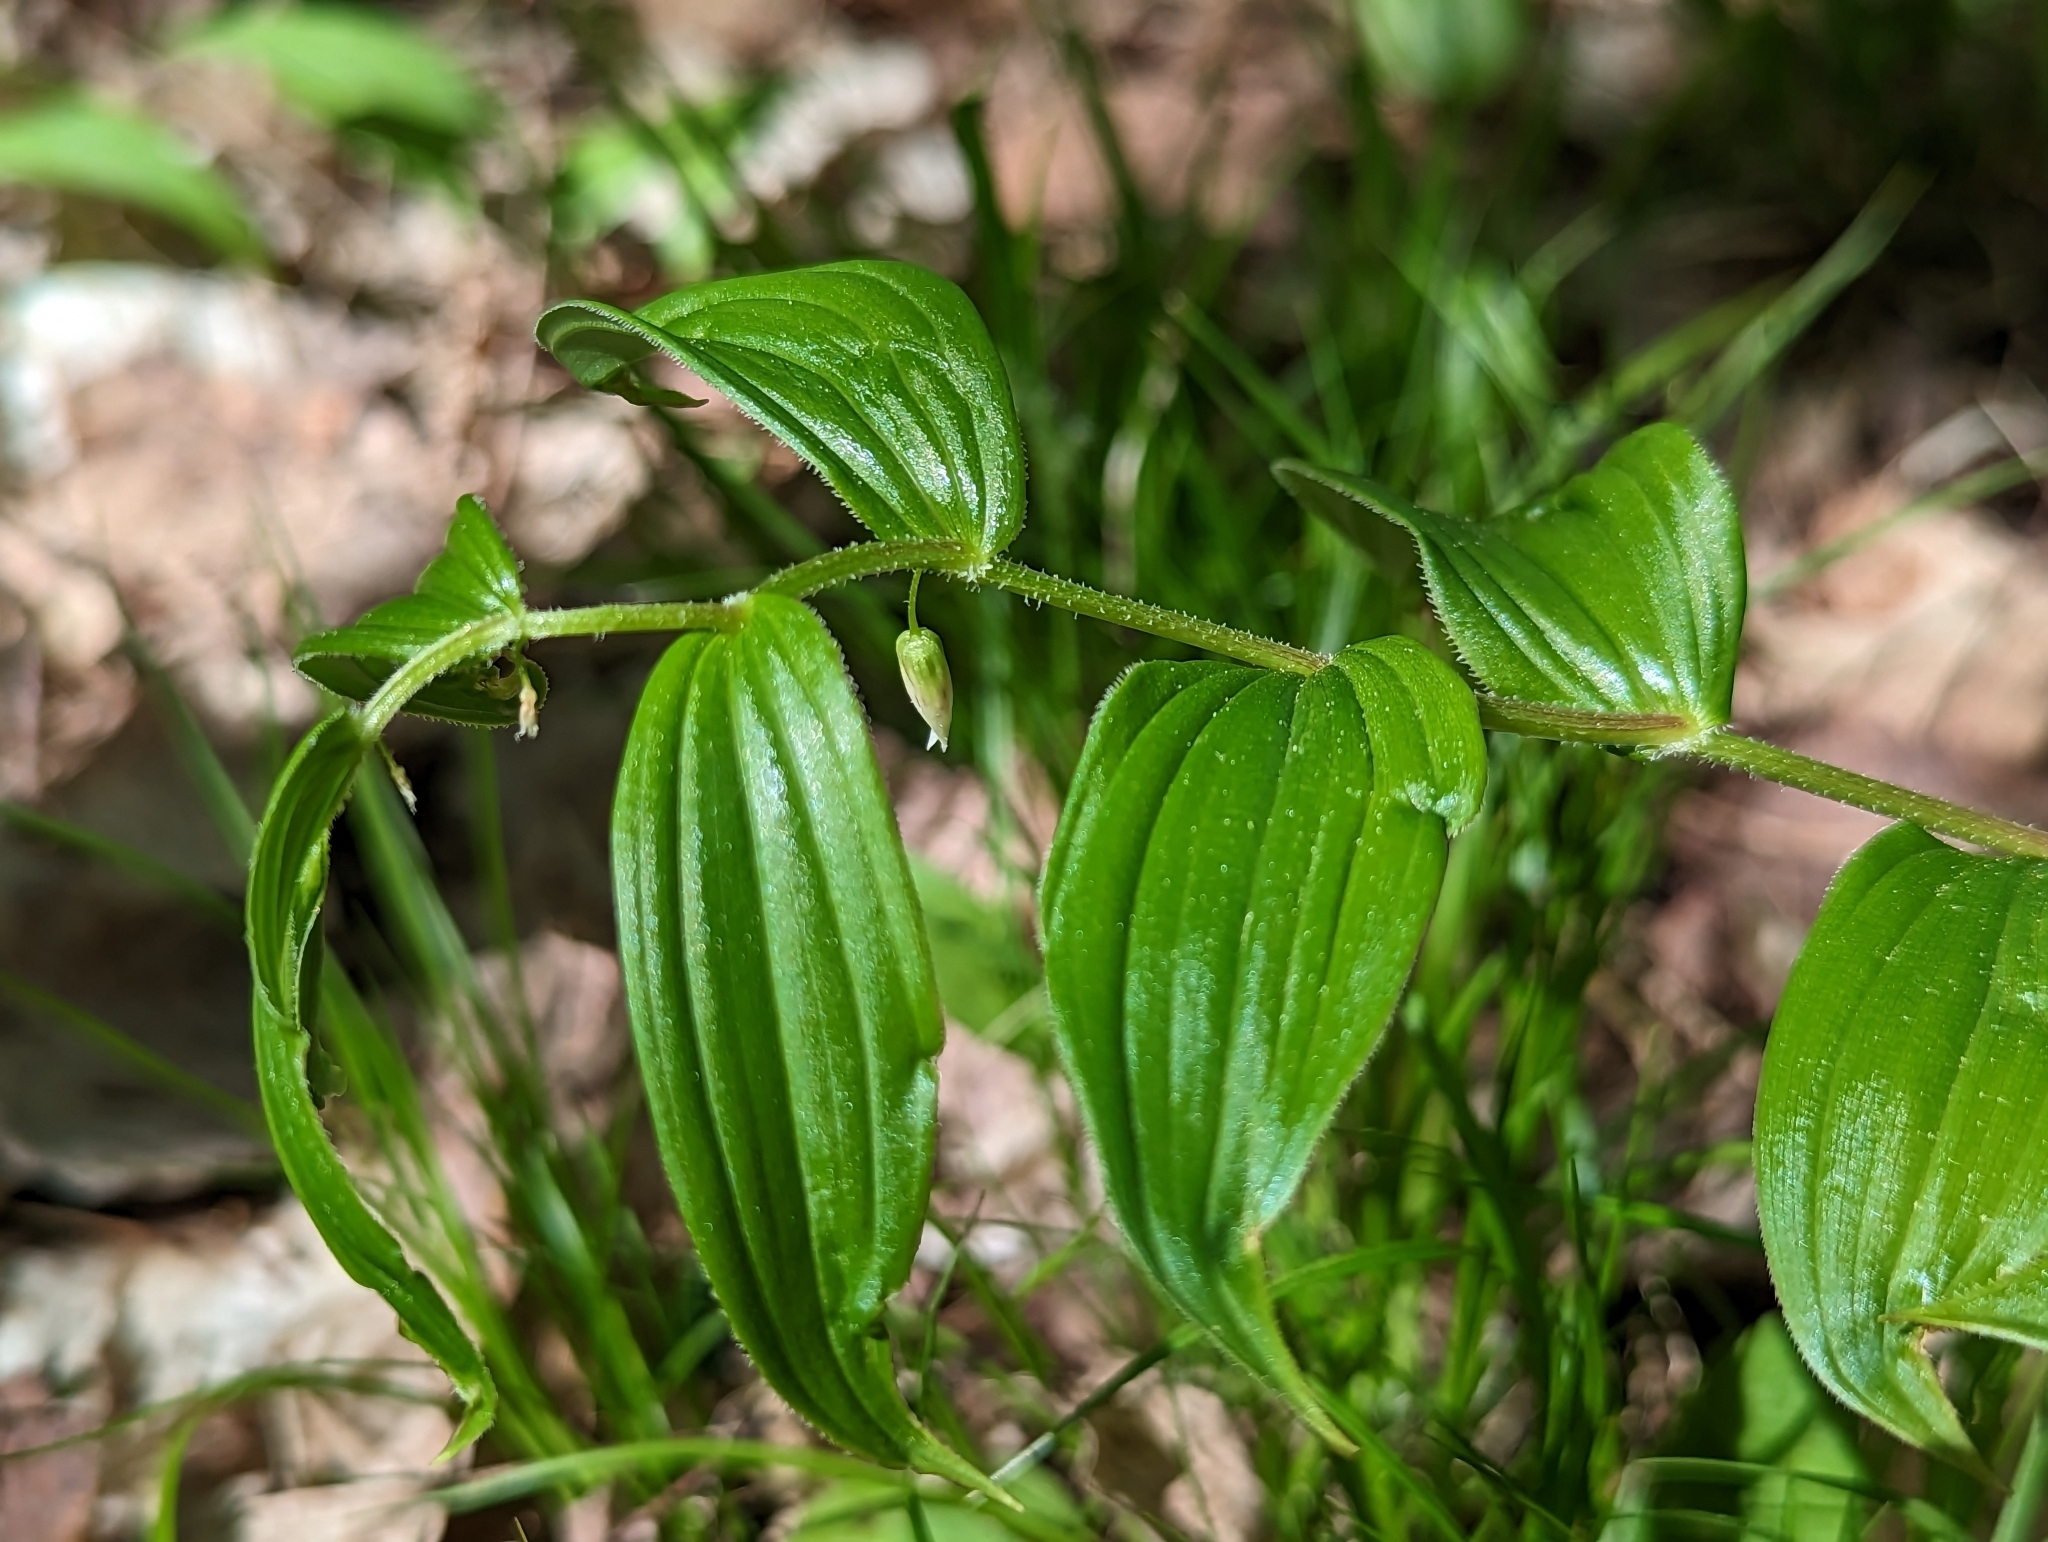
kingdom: Plantae
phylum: Tracheophyta
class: Liliopsida
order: Liliales
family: Liliaceae
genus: Streptopus
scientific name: Streptopus lanceolatus
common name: Rose mandarin
